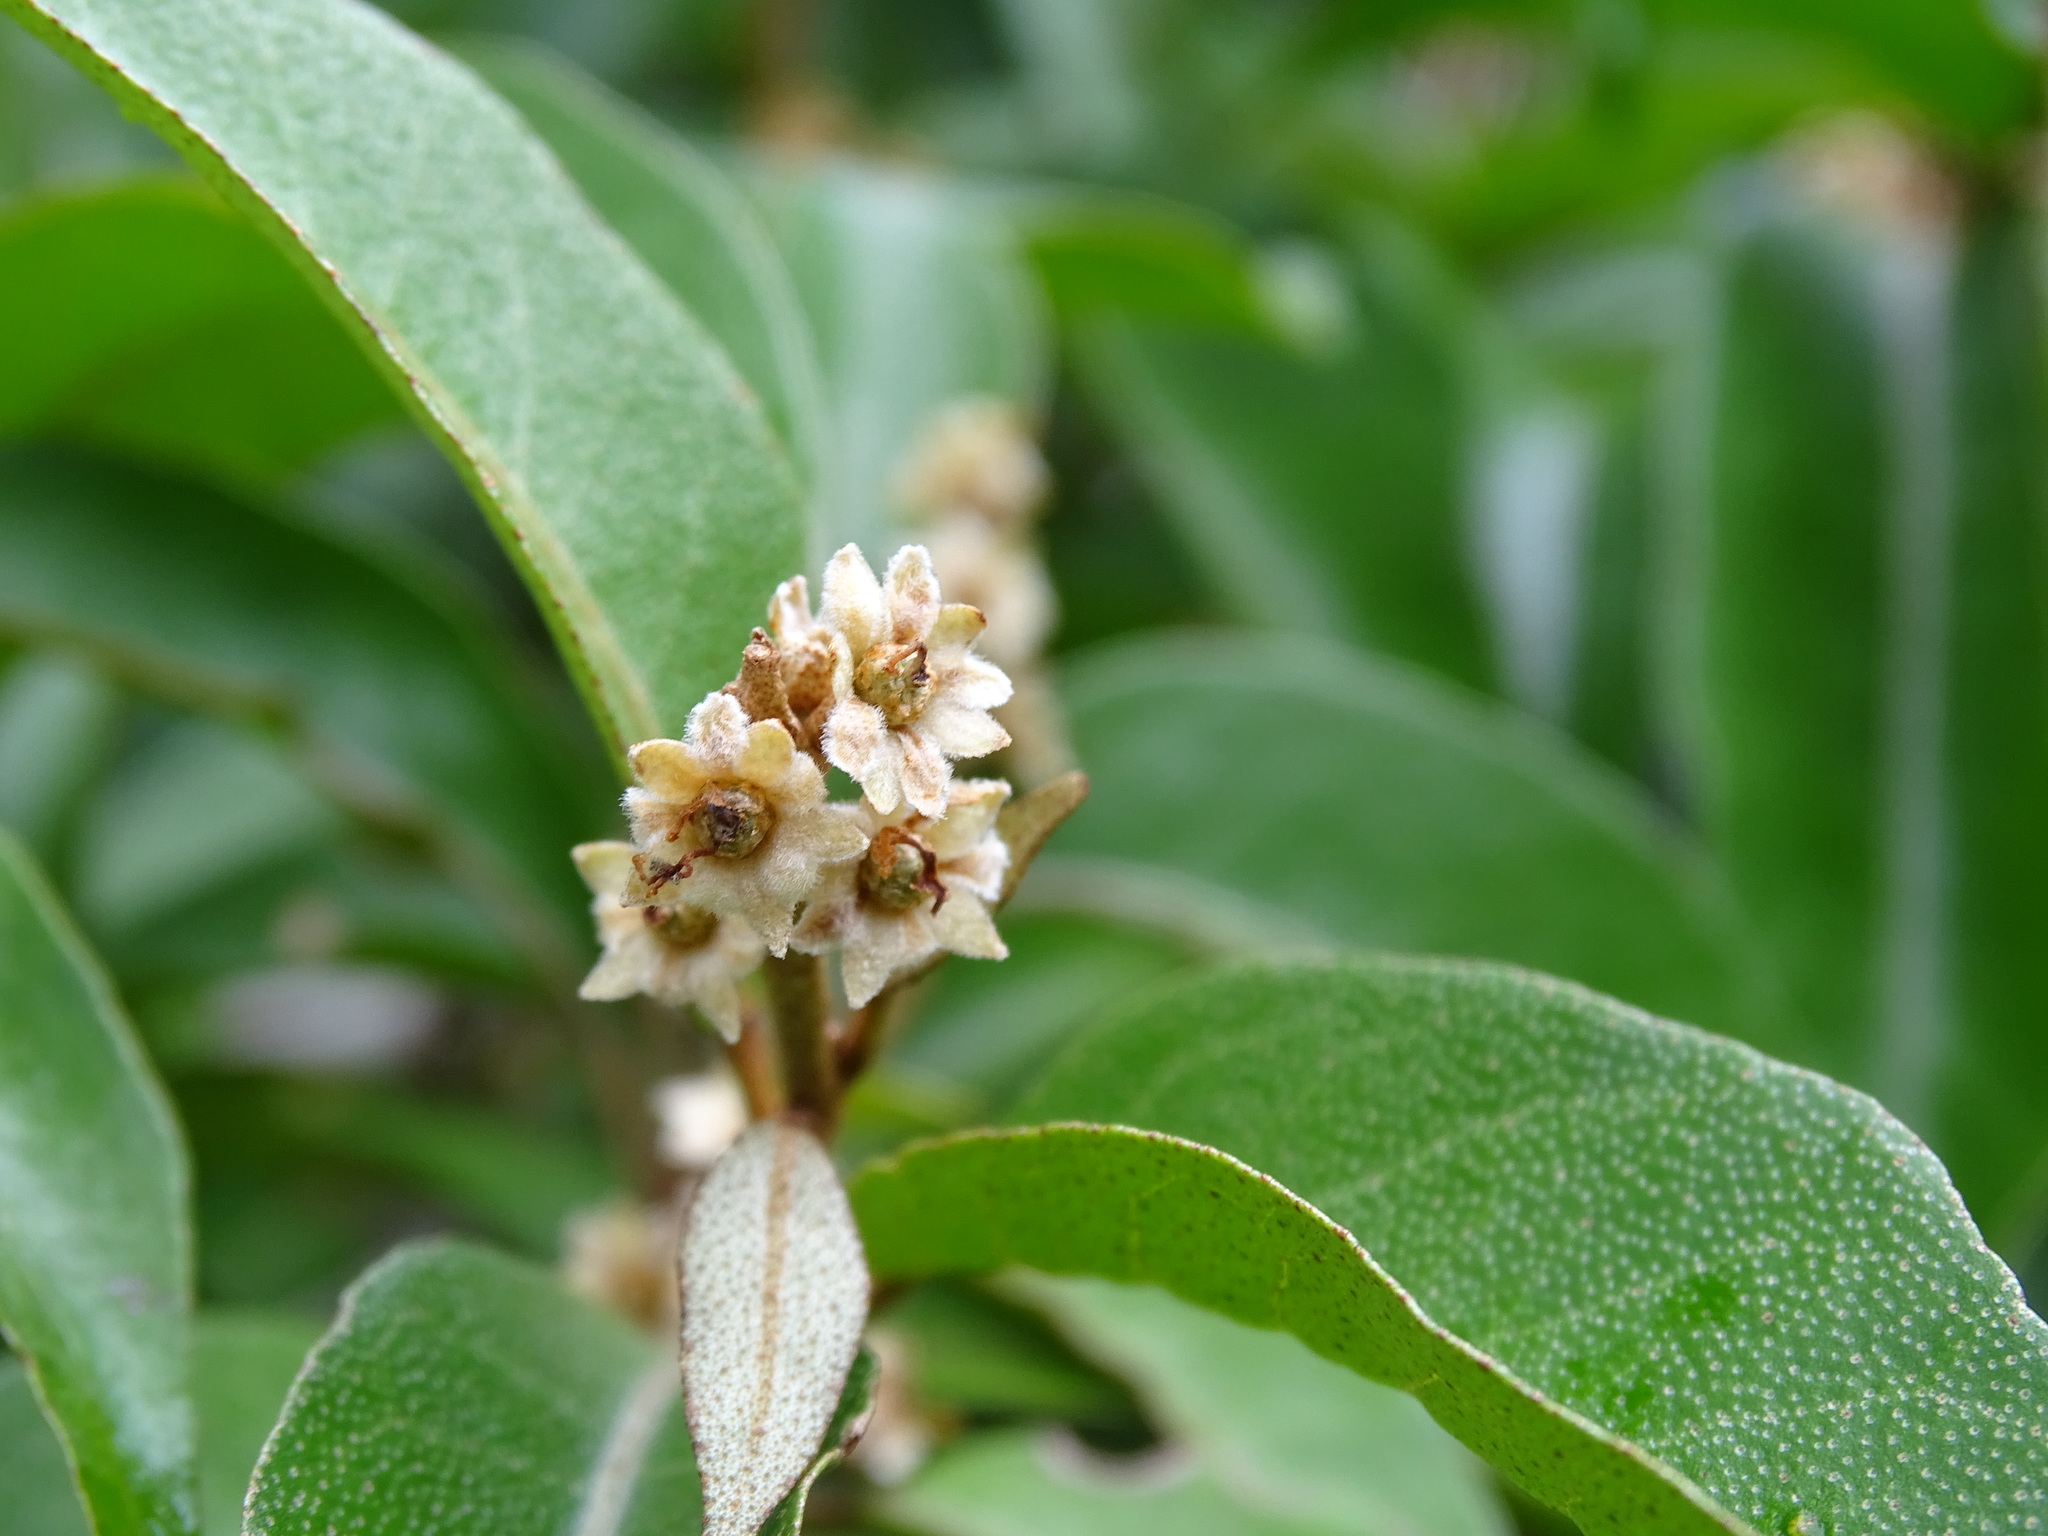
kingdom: Plantae
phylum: Tracheophyta
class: Magnoliopsida
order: Malpighiales
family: Euphorbiaceae
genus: Croton
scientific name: Croton arboreus
